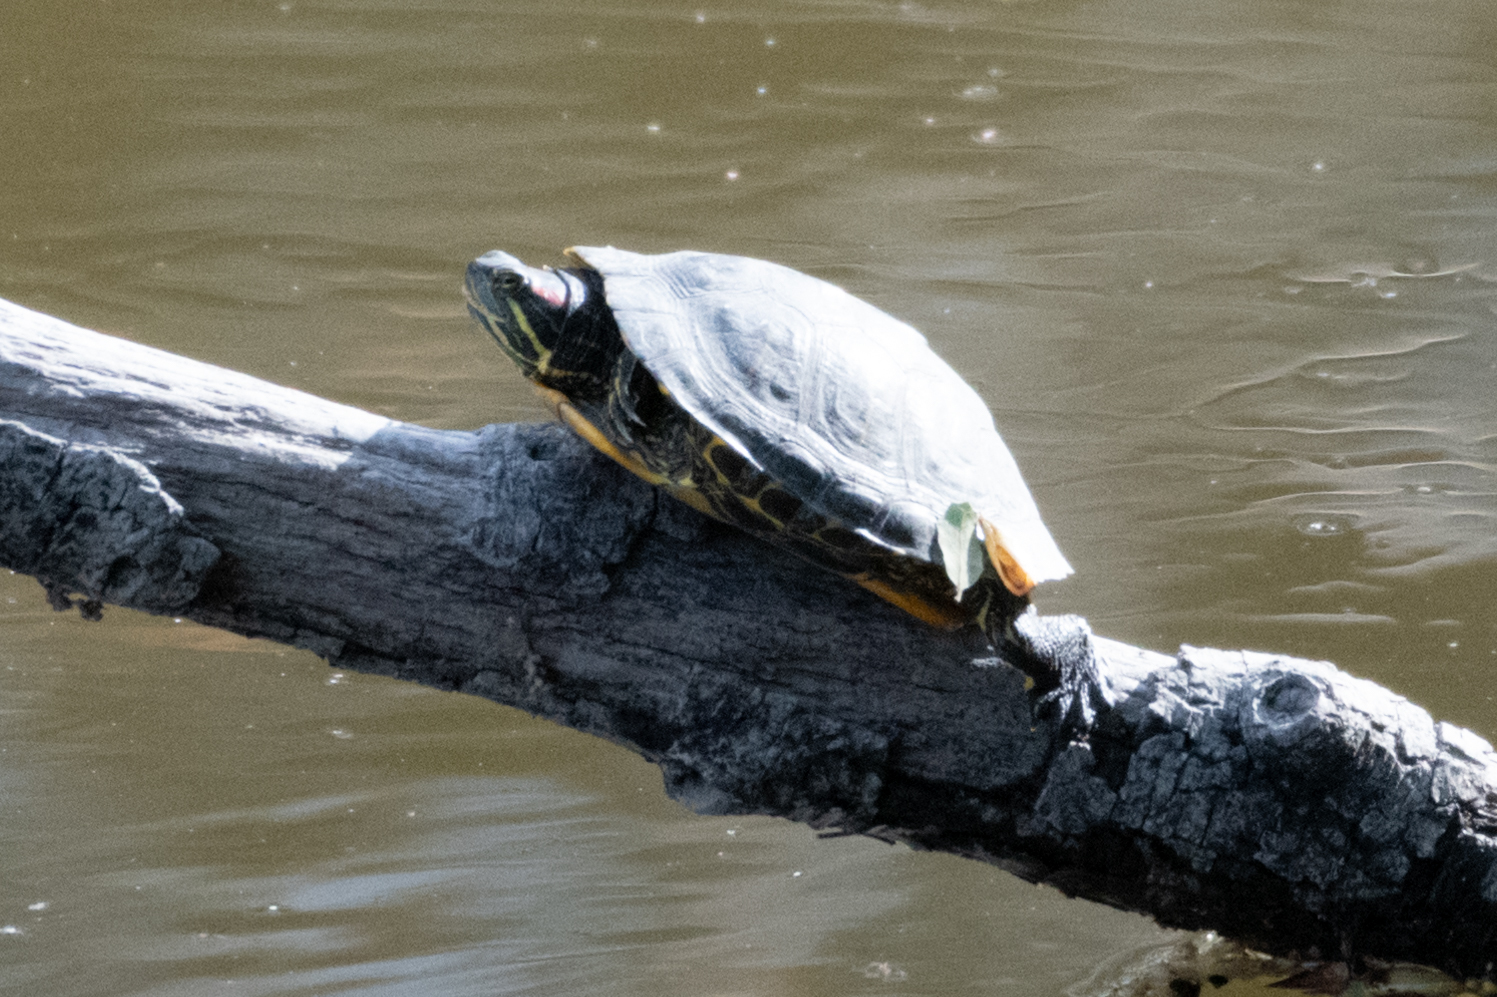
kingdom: Animalia
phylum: Chordata
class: Testudines
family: Emydidae
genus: Trachemys
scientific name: Trachemys scripta
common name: Slider
